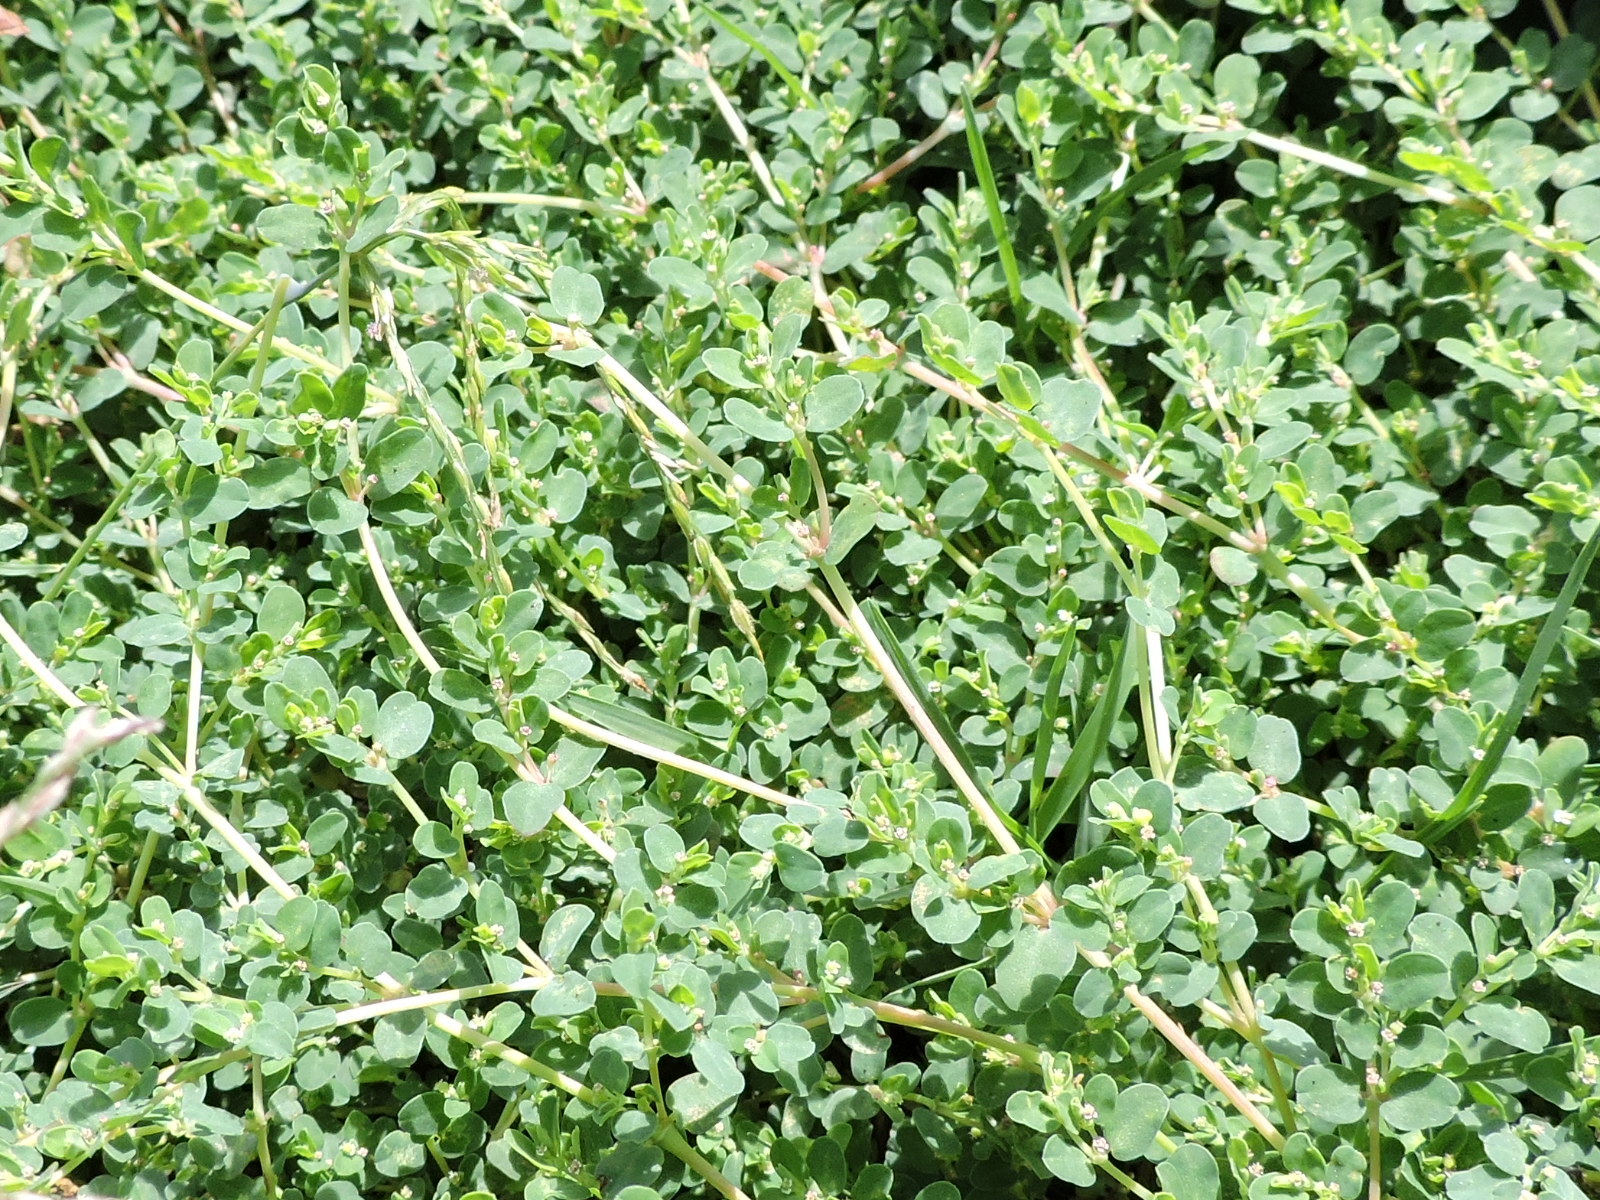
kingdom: Plantae
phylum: Tracheophyta
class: Magnoliopsida
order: Malpighiales
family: Euphorbiaceae
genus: Euphorbia
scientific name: Euphorbia serpens
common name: Matted sandmat
